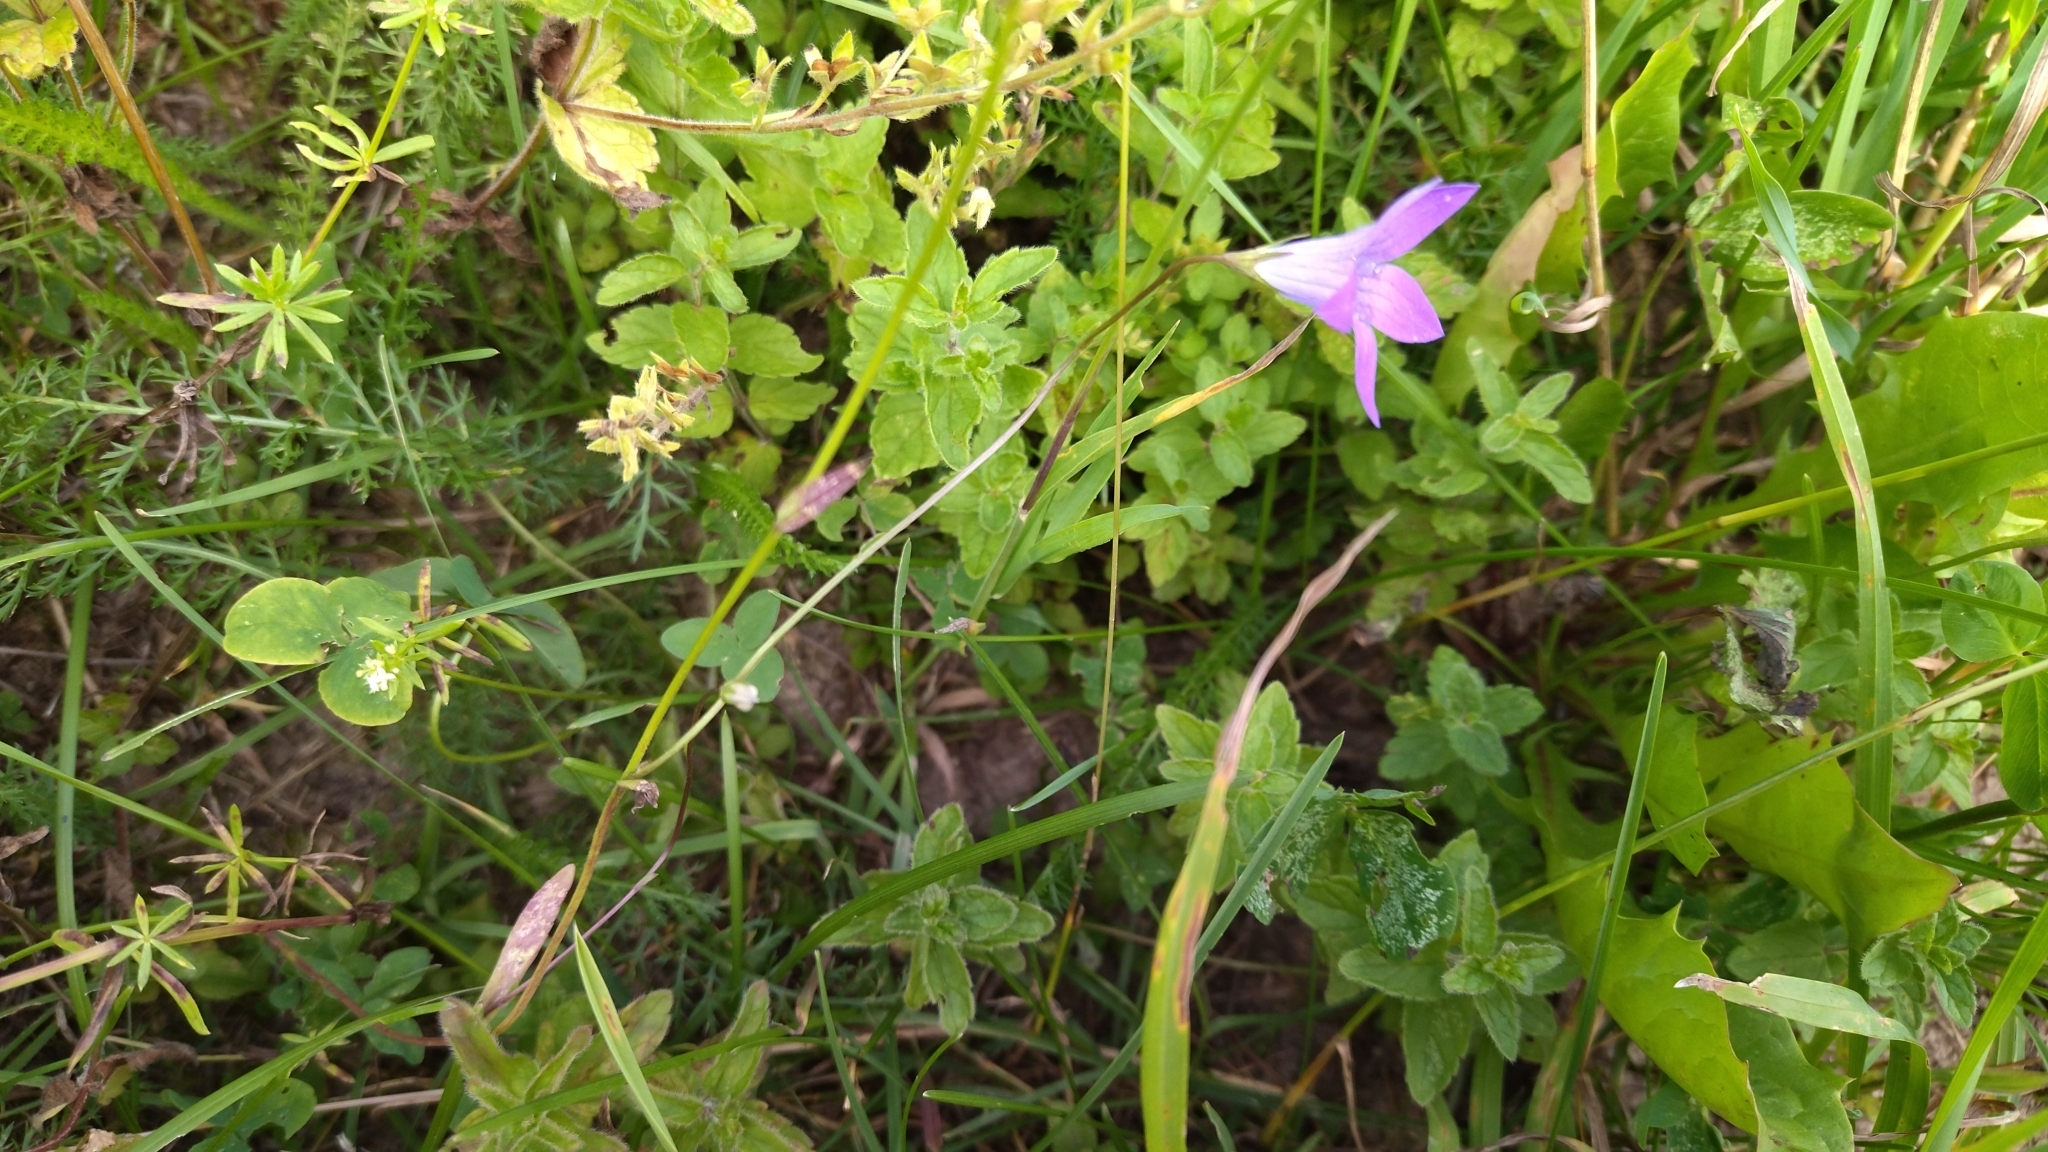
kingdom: Plantae
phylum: Tracheophyta
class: Magnoliopsida
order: Asterales
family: Campanulaceae
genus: Campanula
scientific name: Campanula patula
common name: Spreading bellflower
